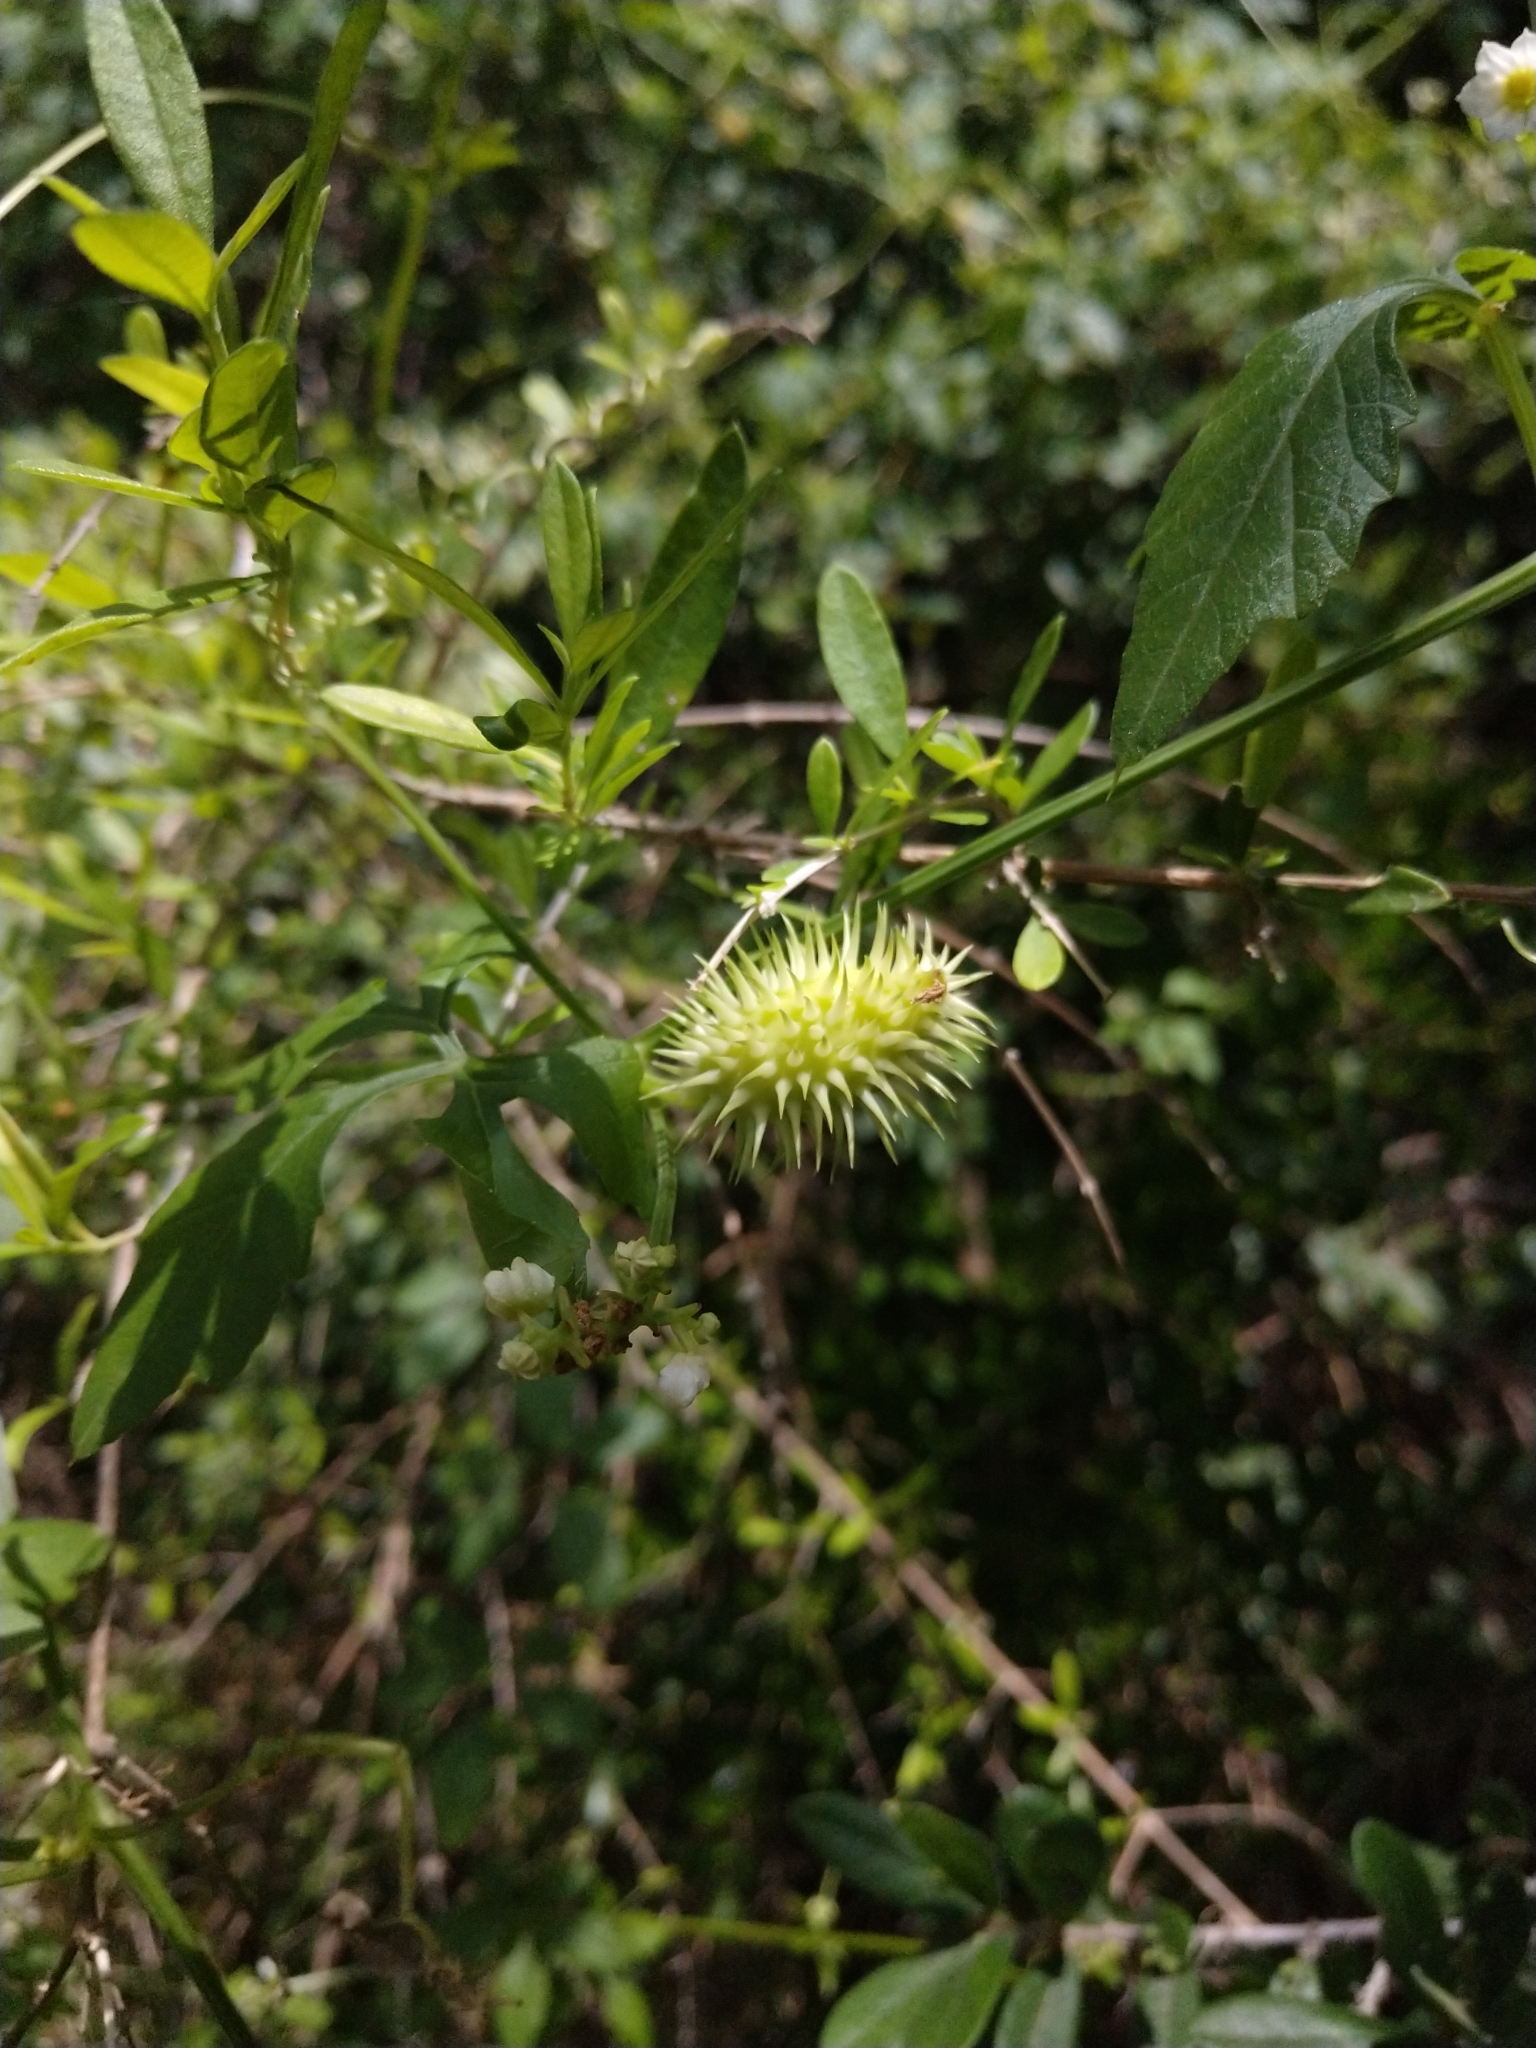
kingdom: Plantae
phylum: Tracheophyta
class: Magnoliopsida
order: Cucurbitales
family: Cucurbitaceae
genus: Cyclanthera
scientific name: Cyclanthera naudiniana
